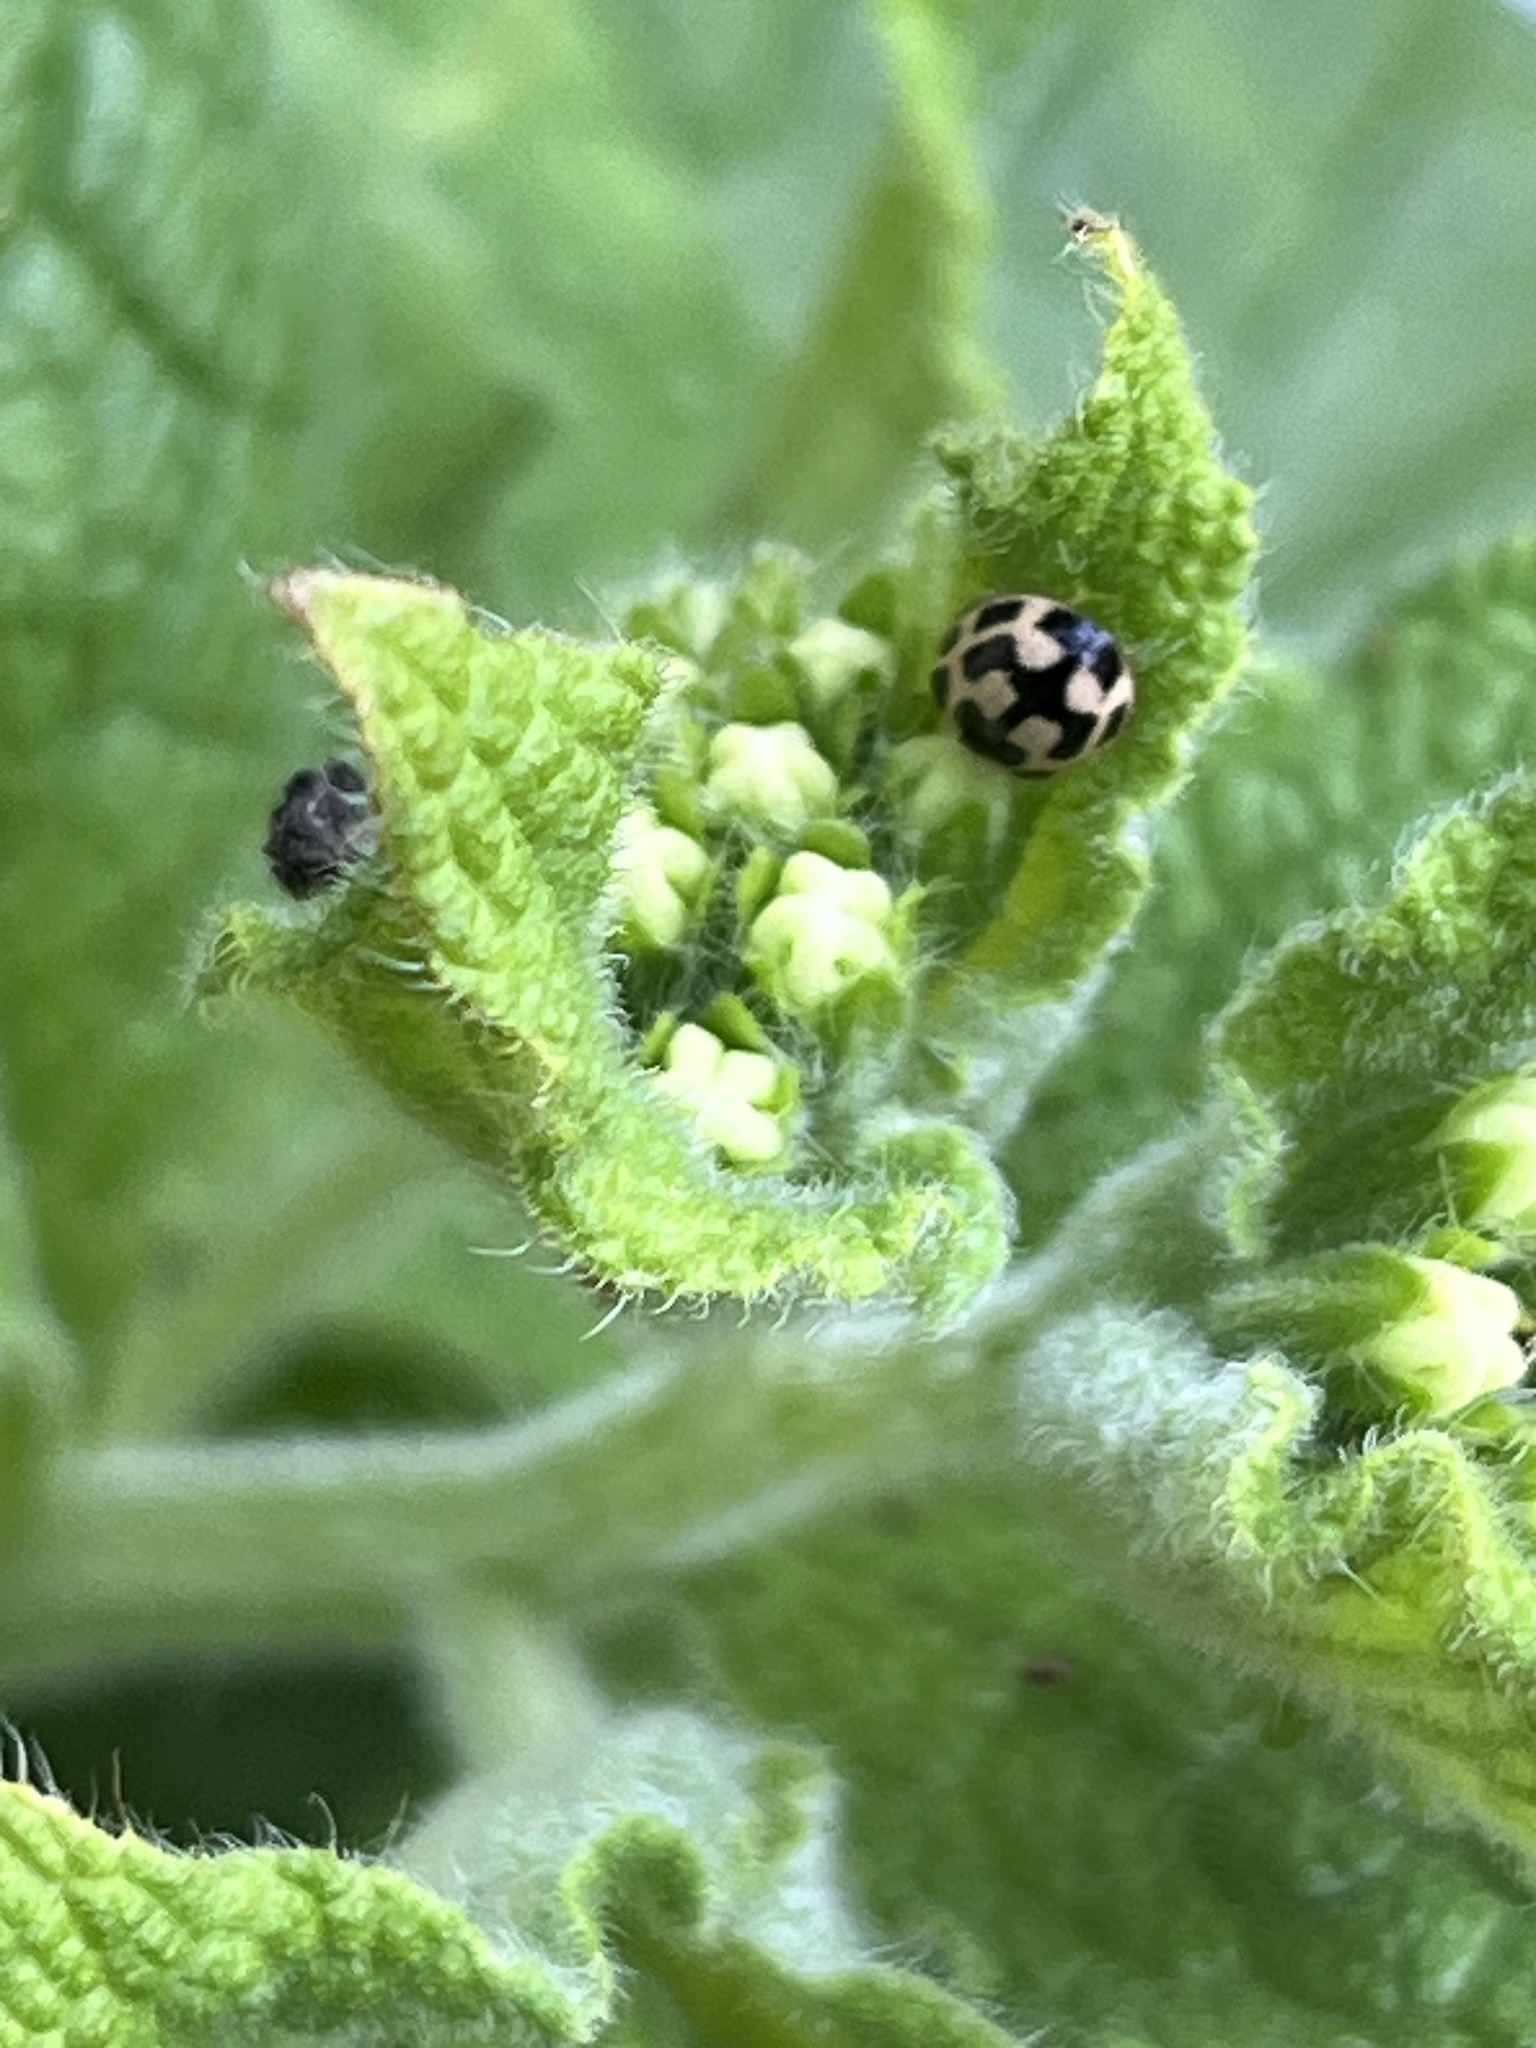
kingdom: Animalia
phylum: Arthropoda
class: Insecta
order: Coleoptera
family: Coccinellidae
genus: Propylaea
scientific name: Propylaea quatuordecimpunctata
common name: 14-spotted ladybird beetle
